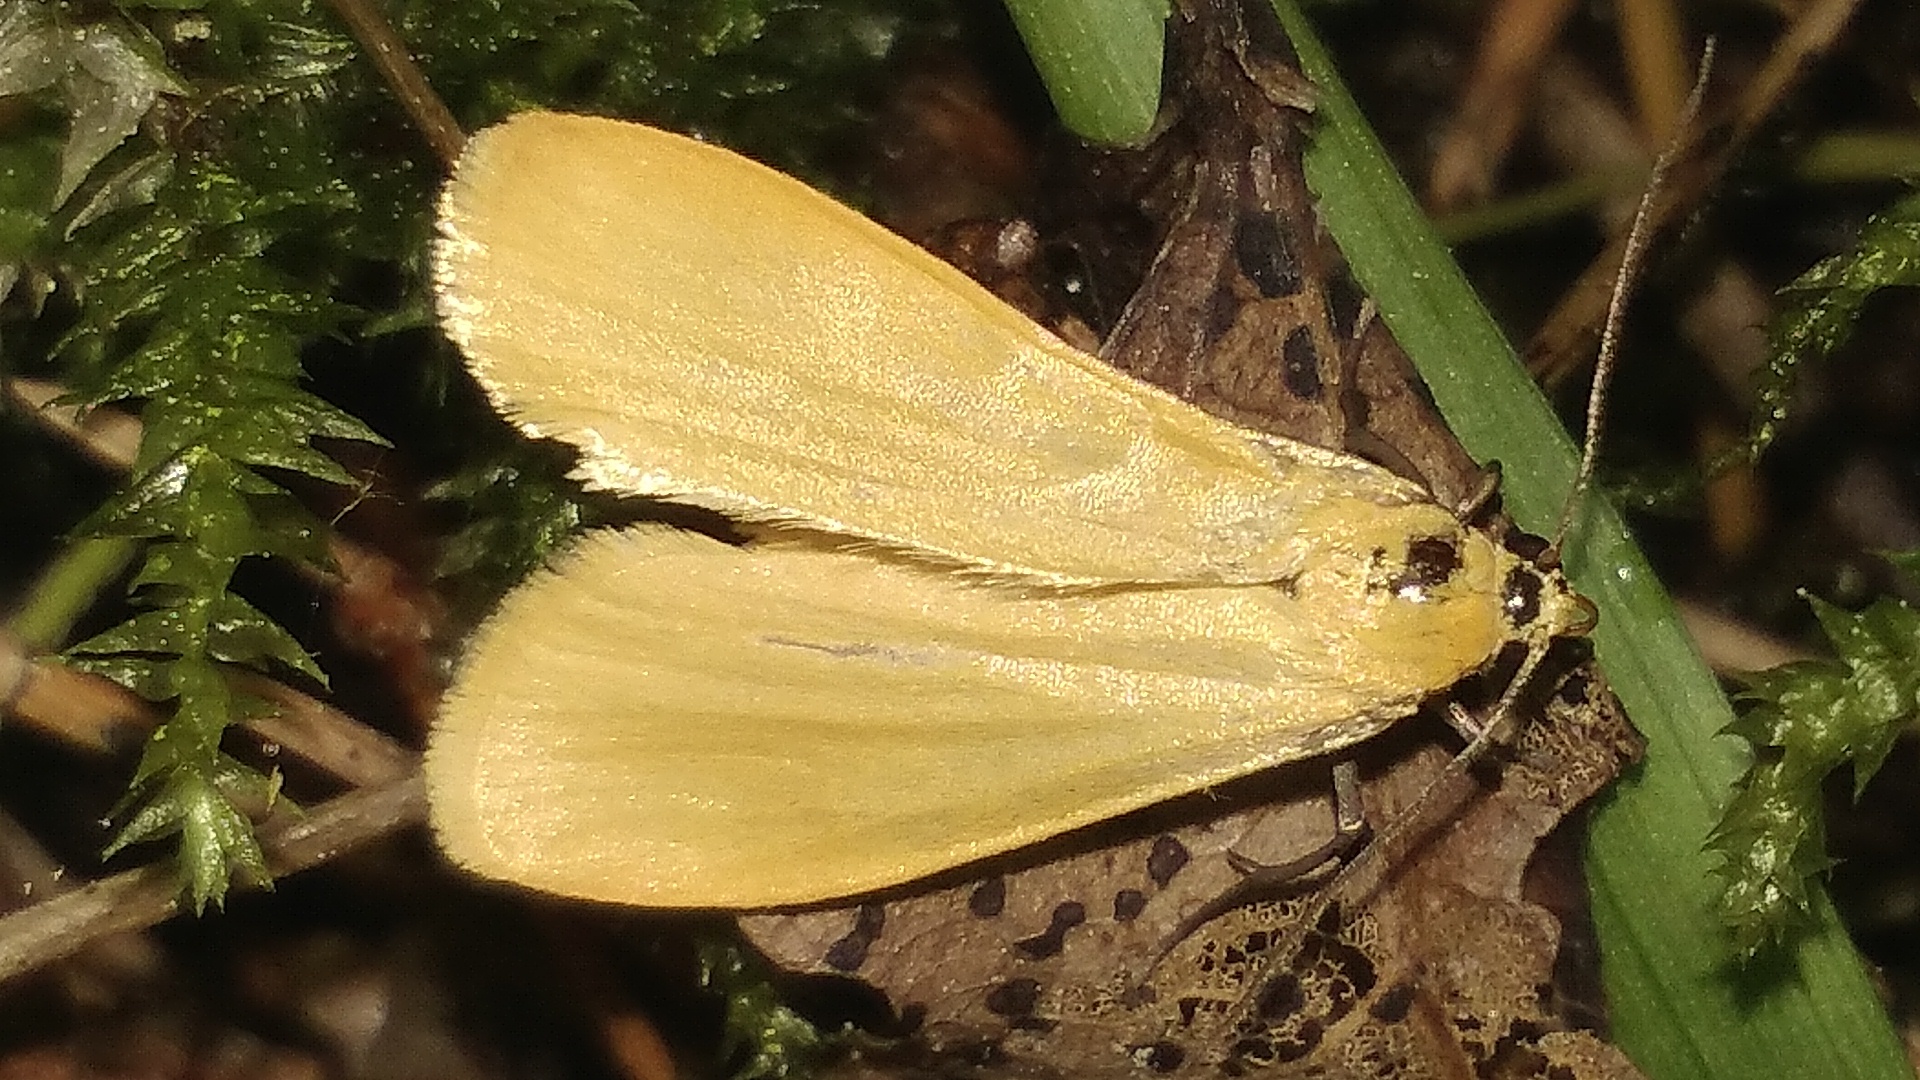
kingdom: Animalia
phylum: Arthropoda
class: Insecta
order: Lepidoptera
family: Erebidae
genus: Wittia
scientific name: Wittia sororcula
